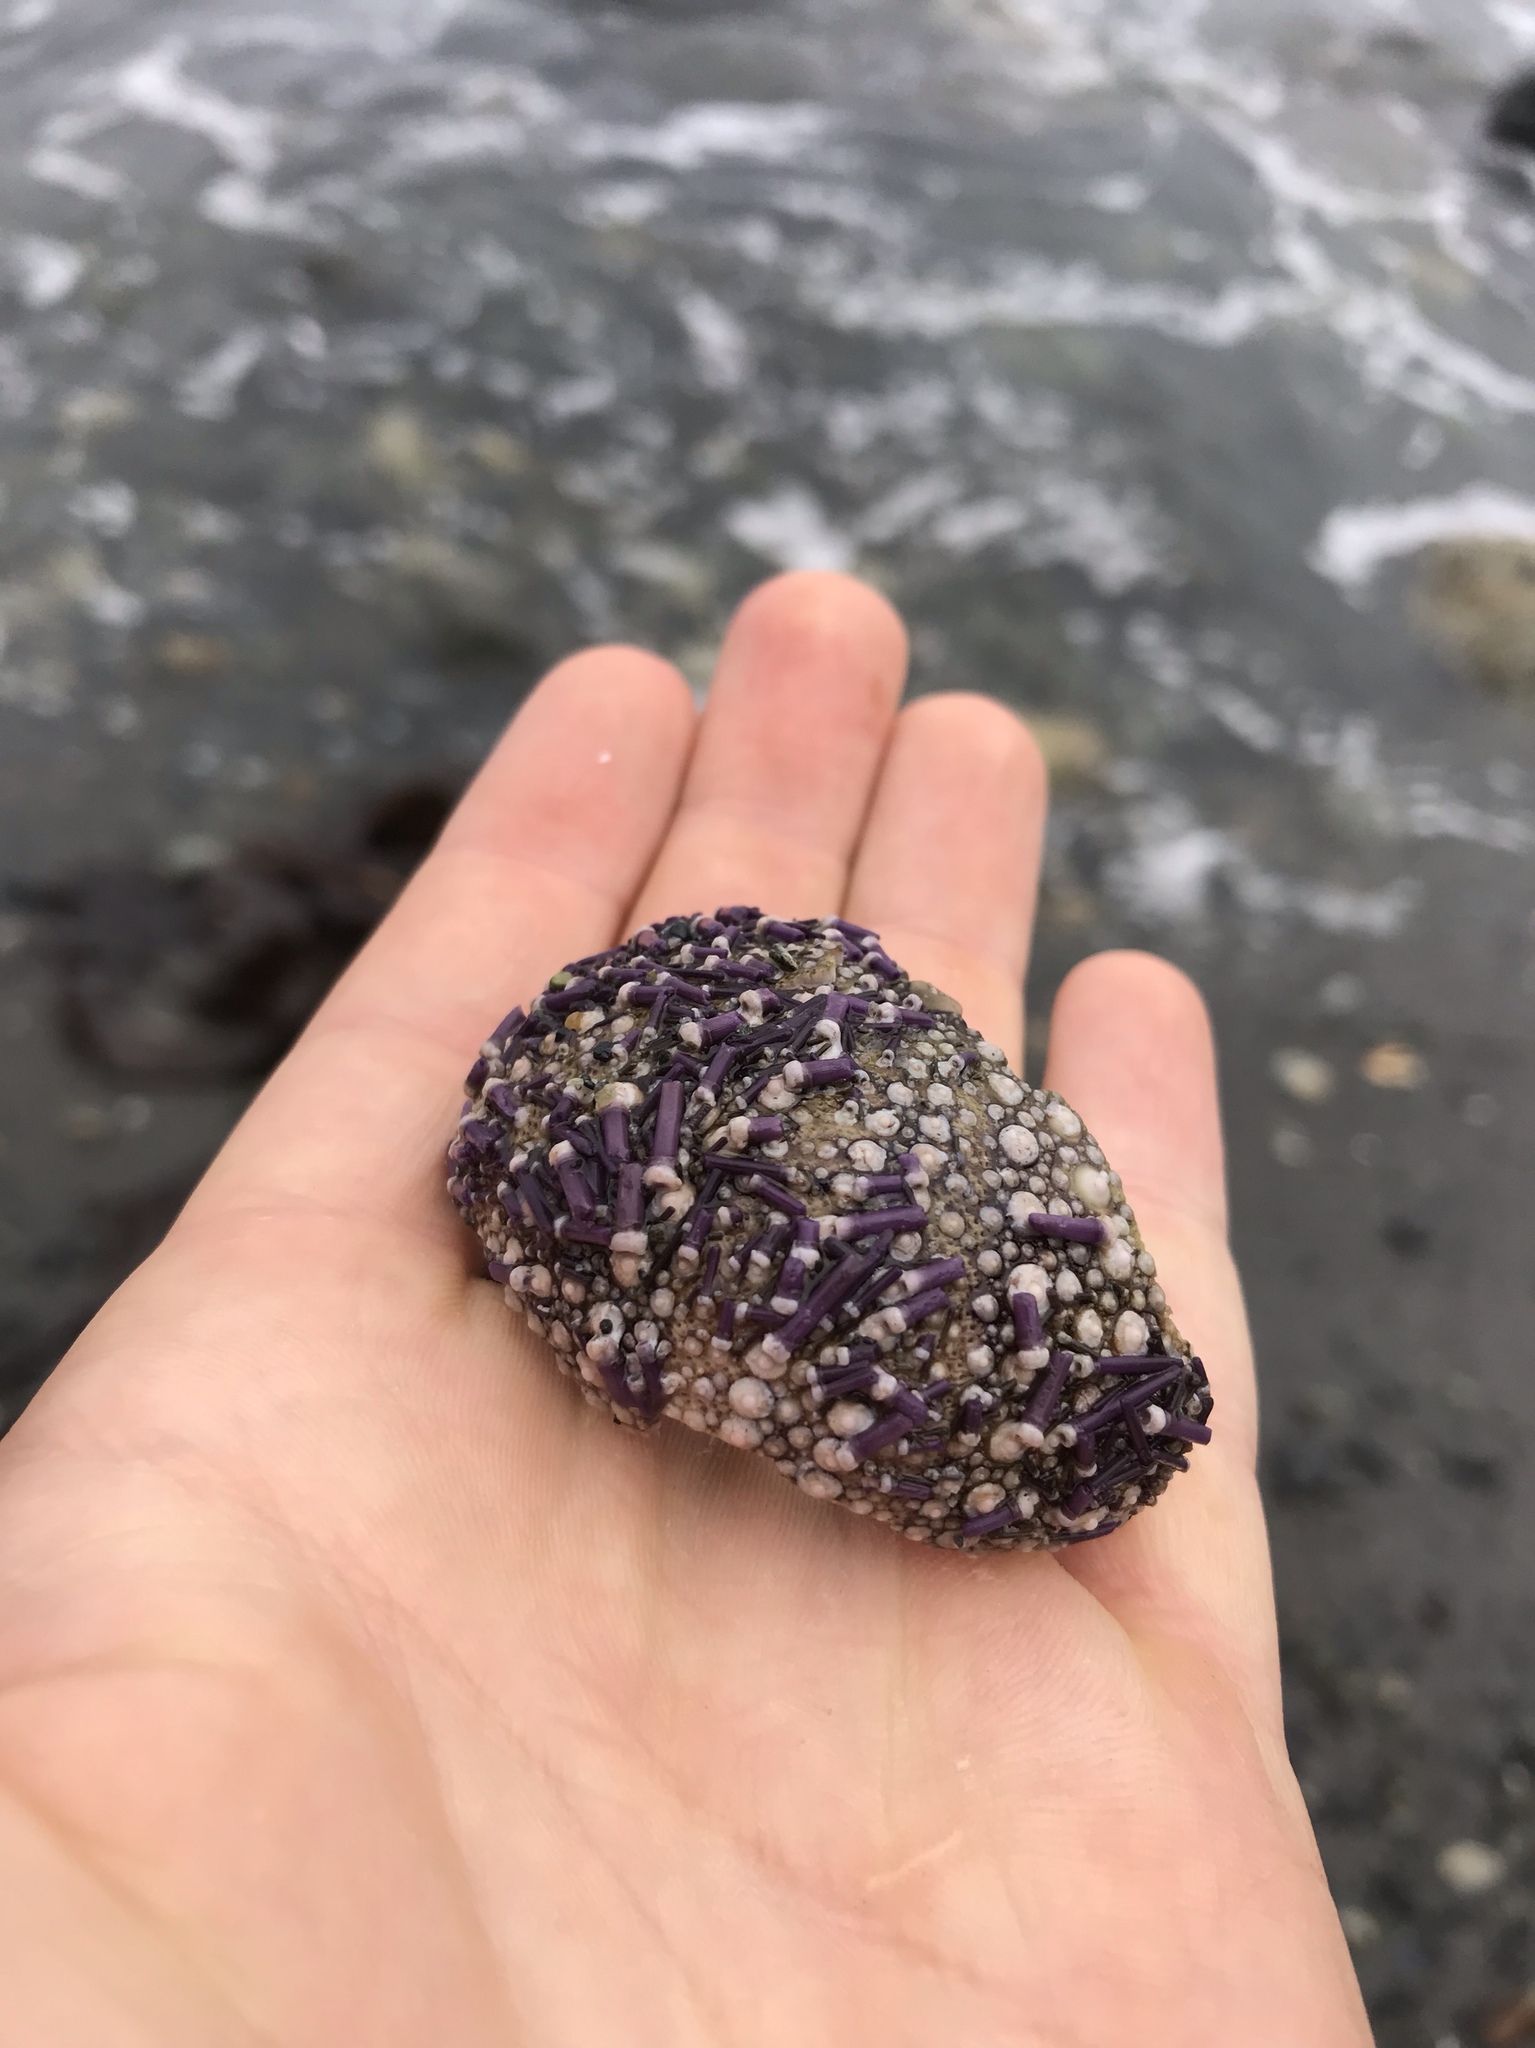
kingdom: Animalia
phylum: Echinodermata
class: Echinoidea
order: Camarodonta
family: Strongylocentrotidae
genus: Strongylocentrotus
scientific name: Strongylocentrotus purpuratus
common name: Purple sea urchin
